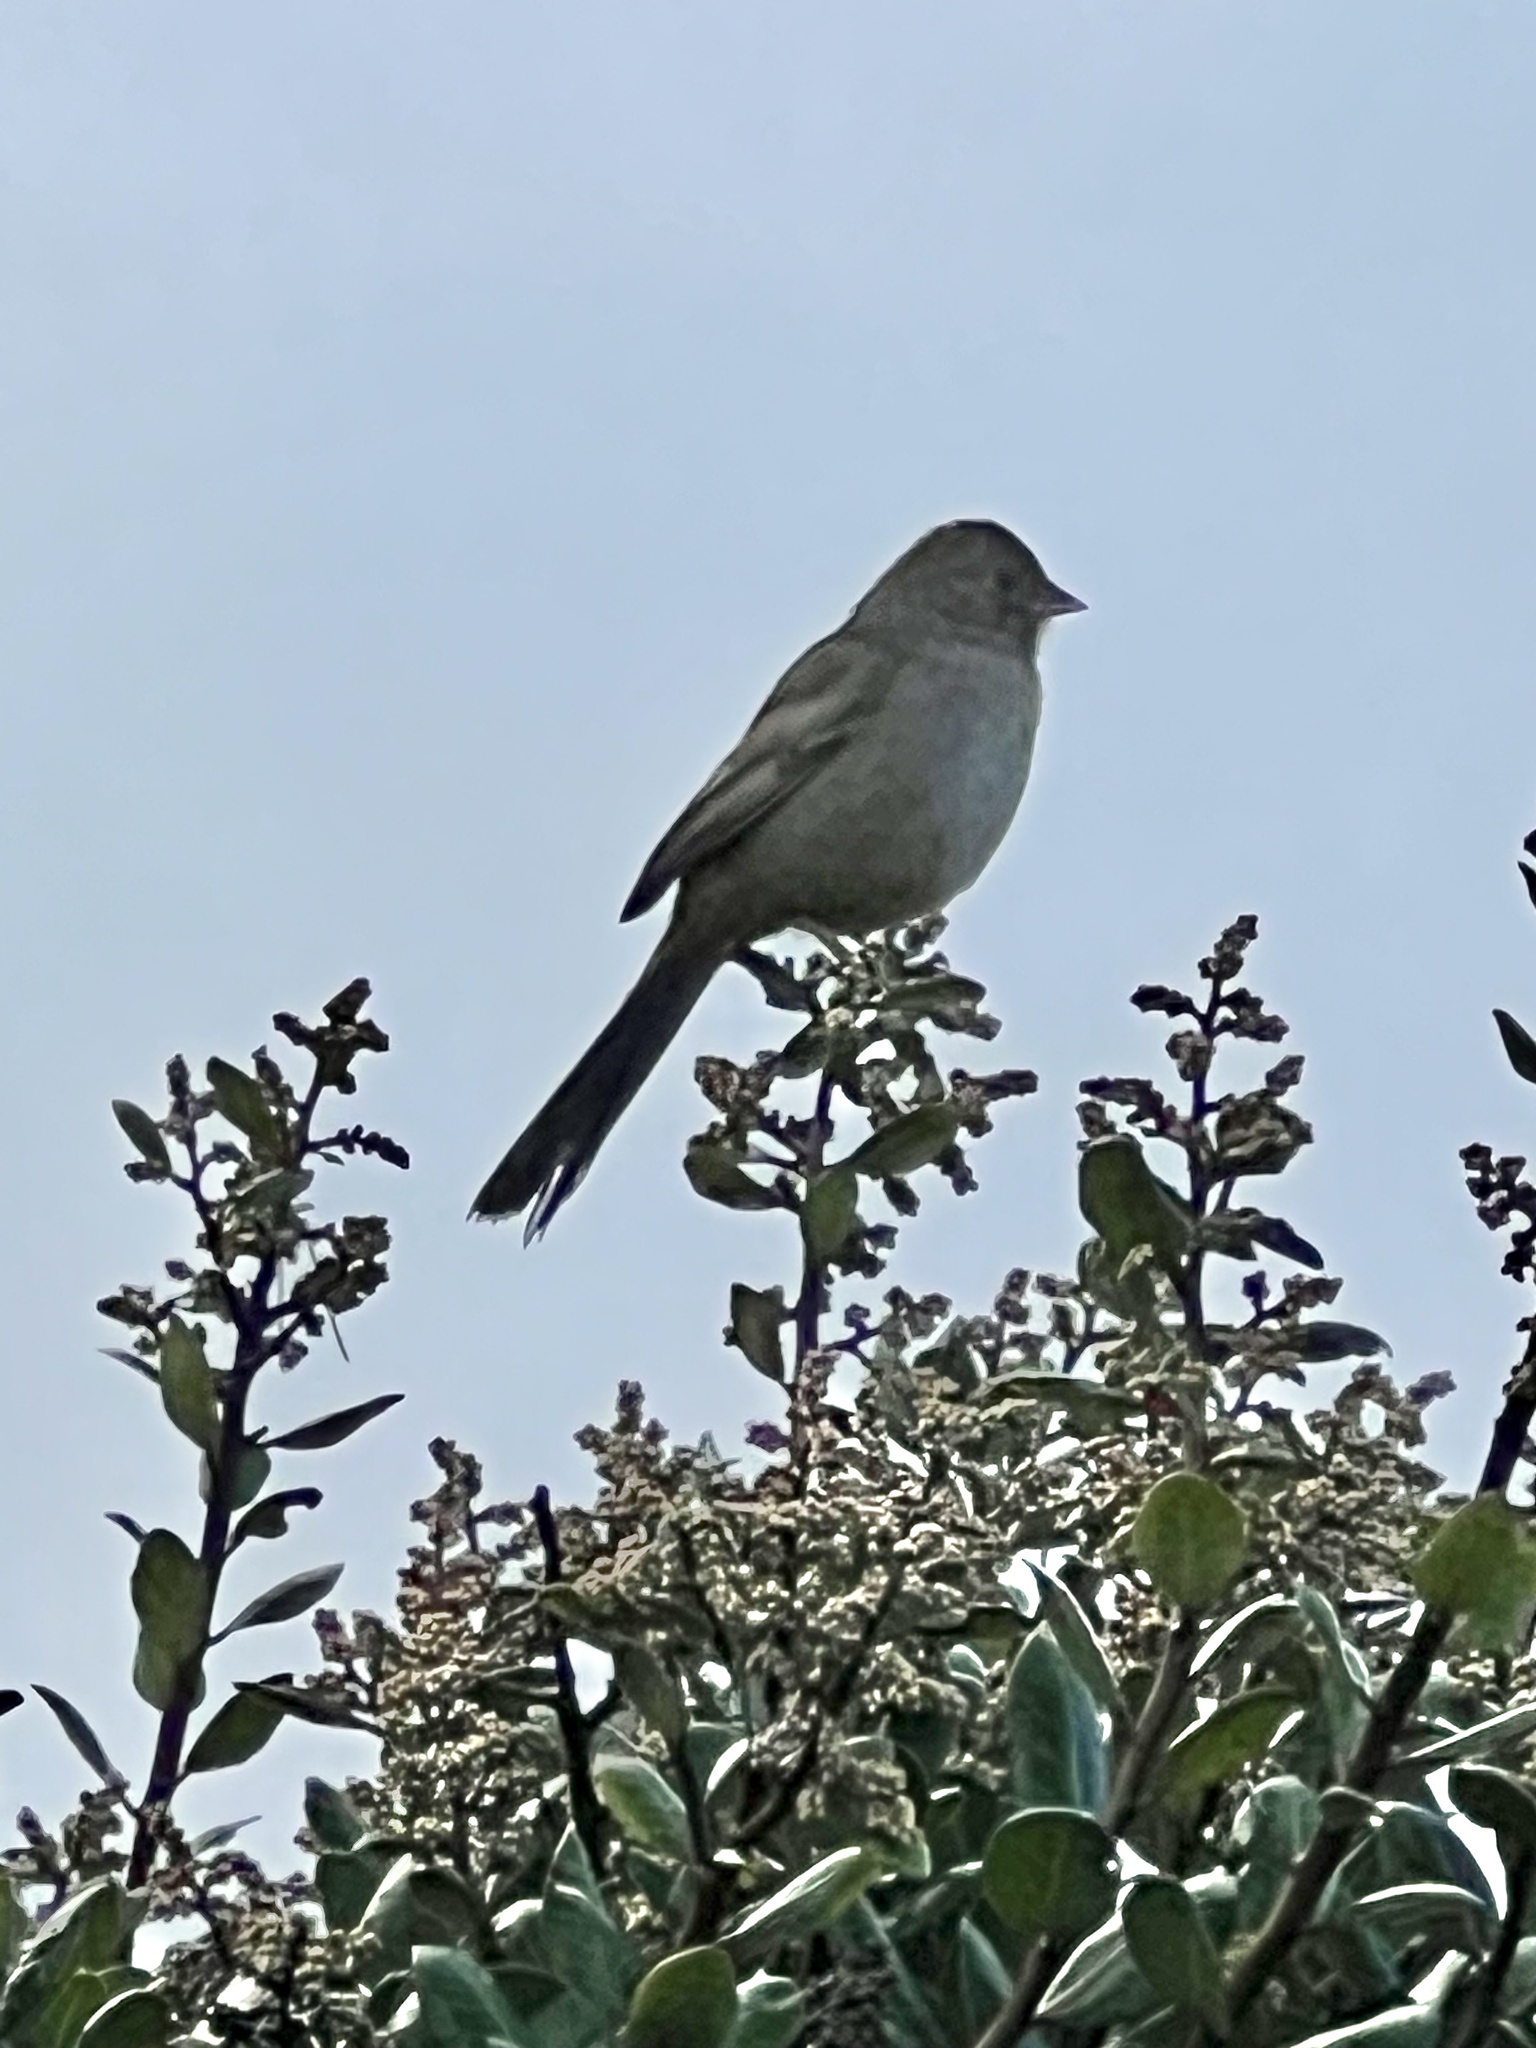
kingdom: Animalia
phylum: Chordata
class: Aves
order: Passeriformes
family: Passerellidae
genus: Melozone
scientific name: Melozone crissalis
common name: California towhee
